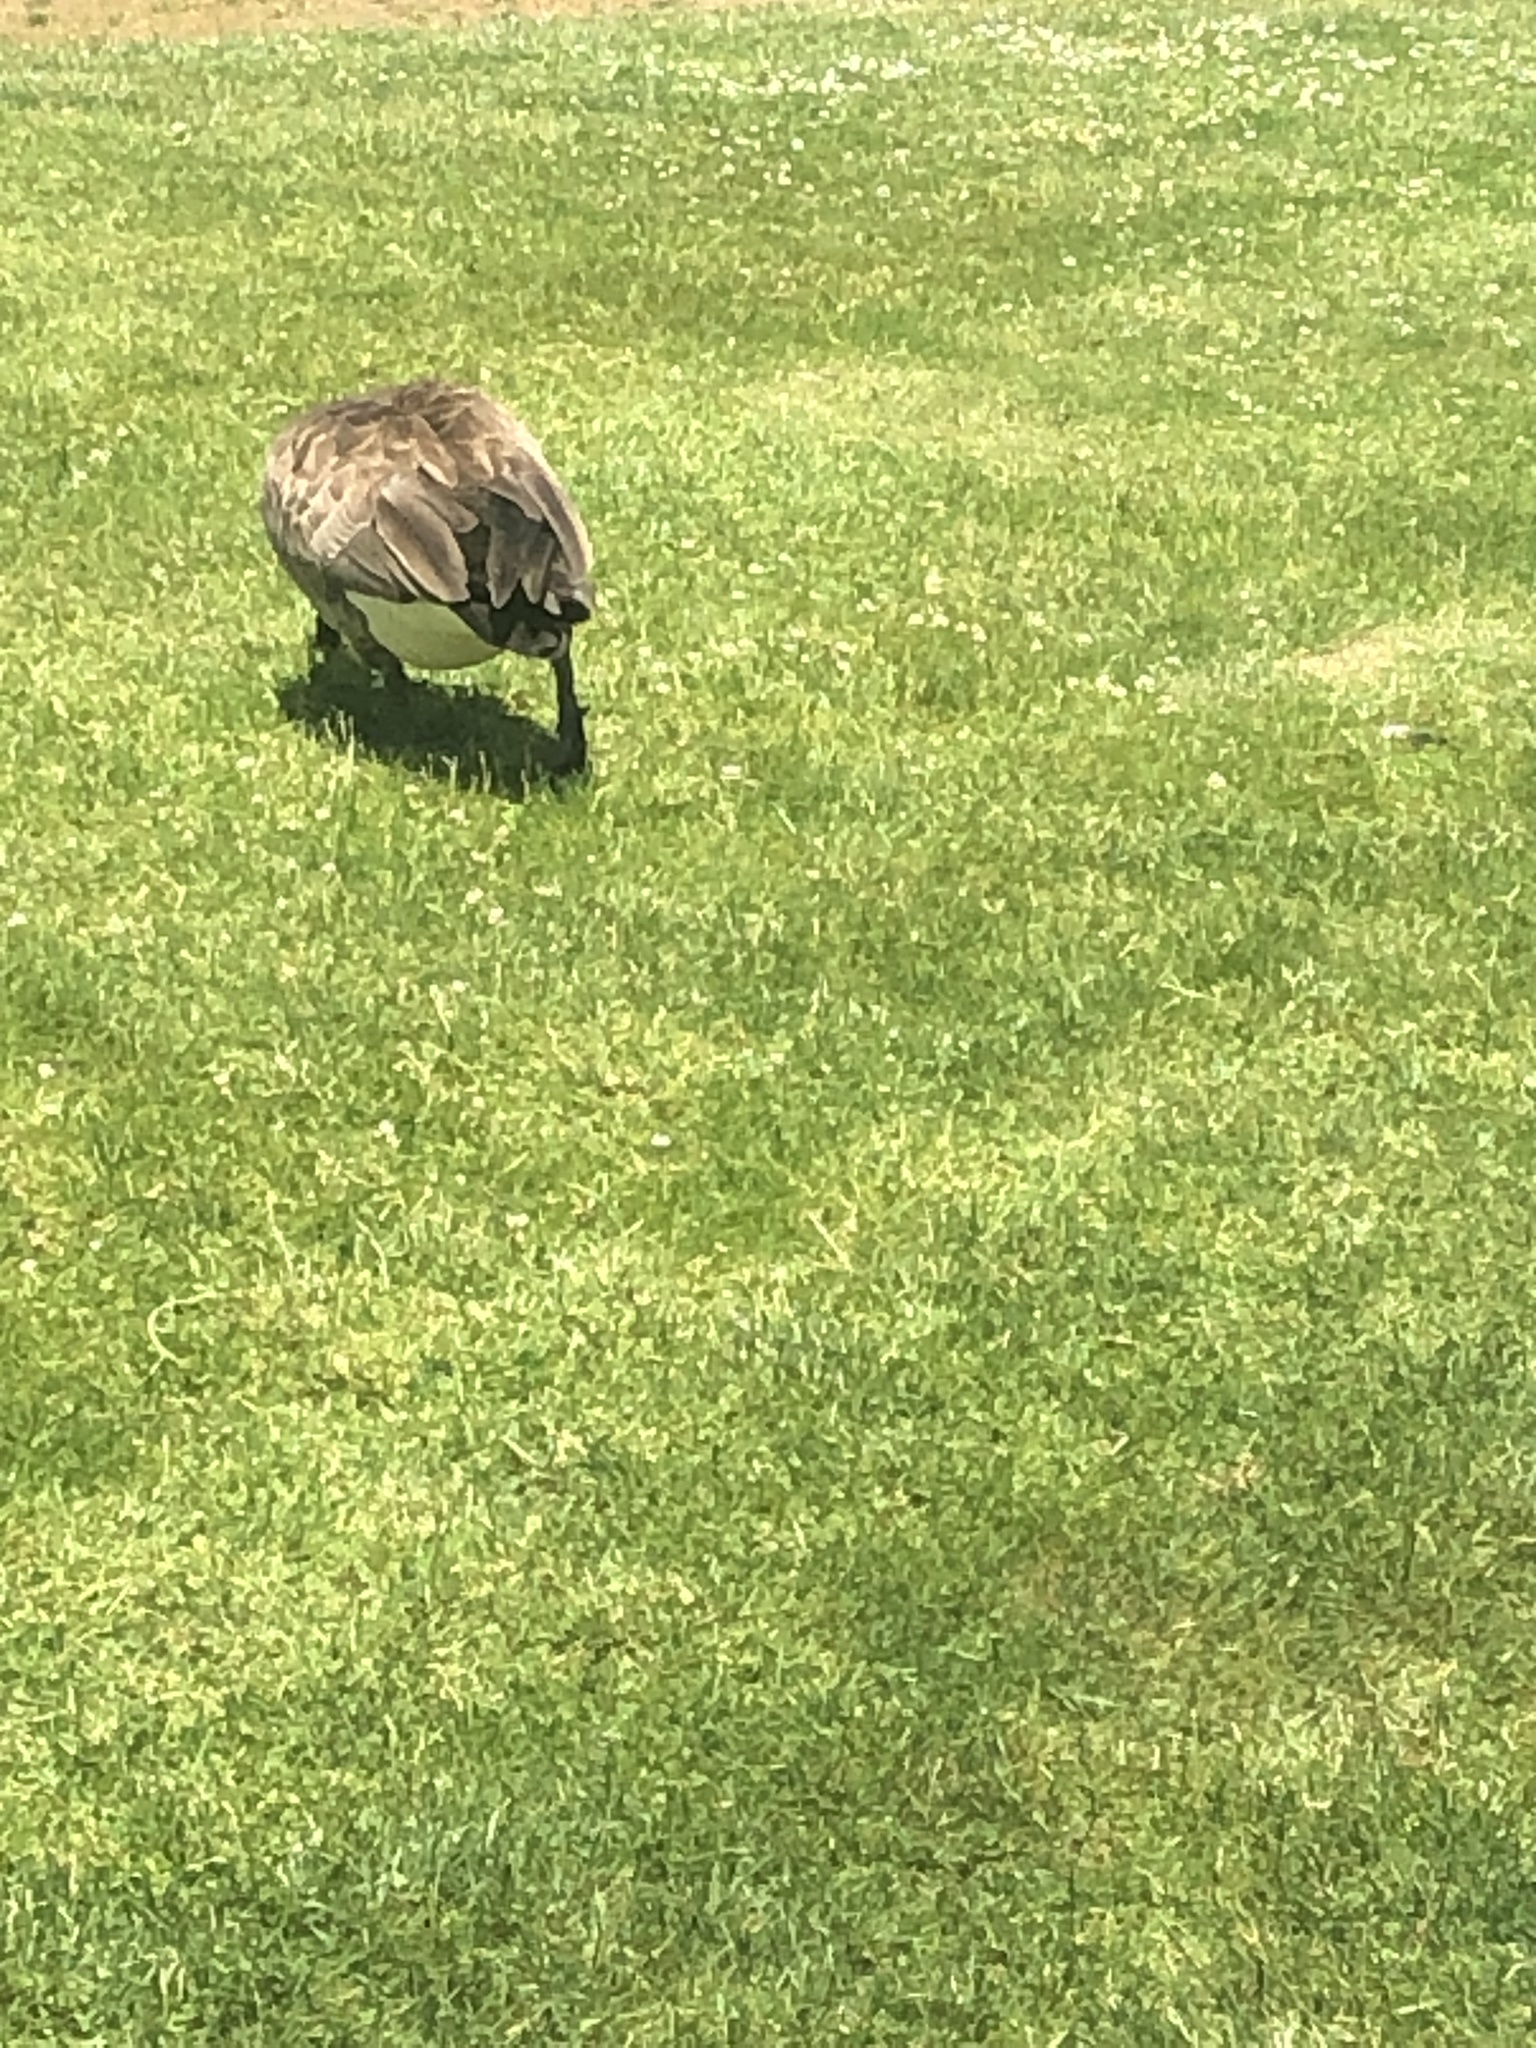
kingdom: Animalia
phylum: Chordata
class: Aves
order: Anseriformes
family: Anatidae
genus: Branta
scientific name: Branta canadensis
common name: Canada goose
